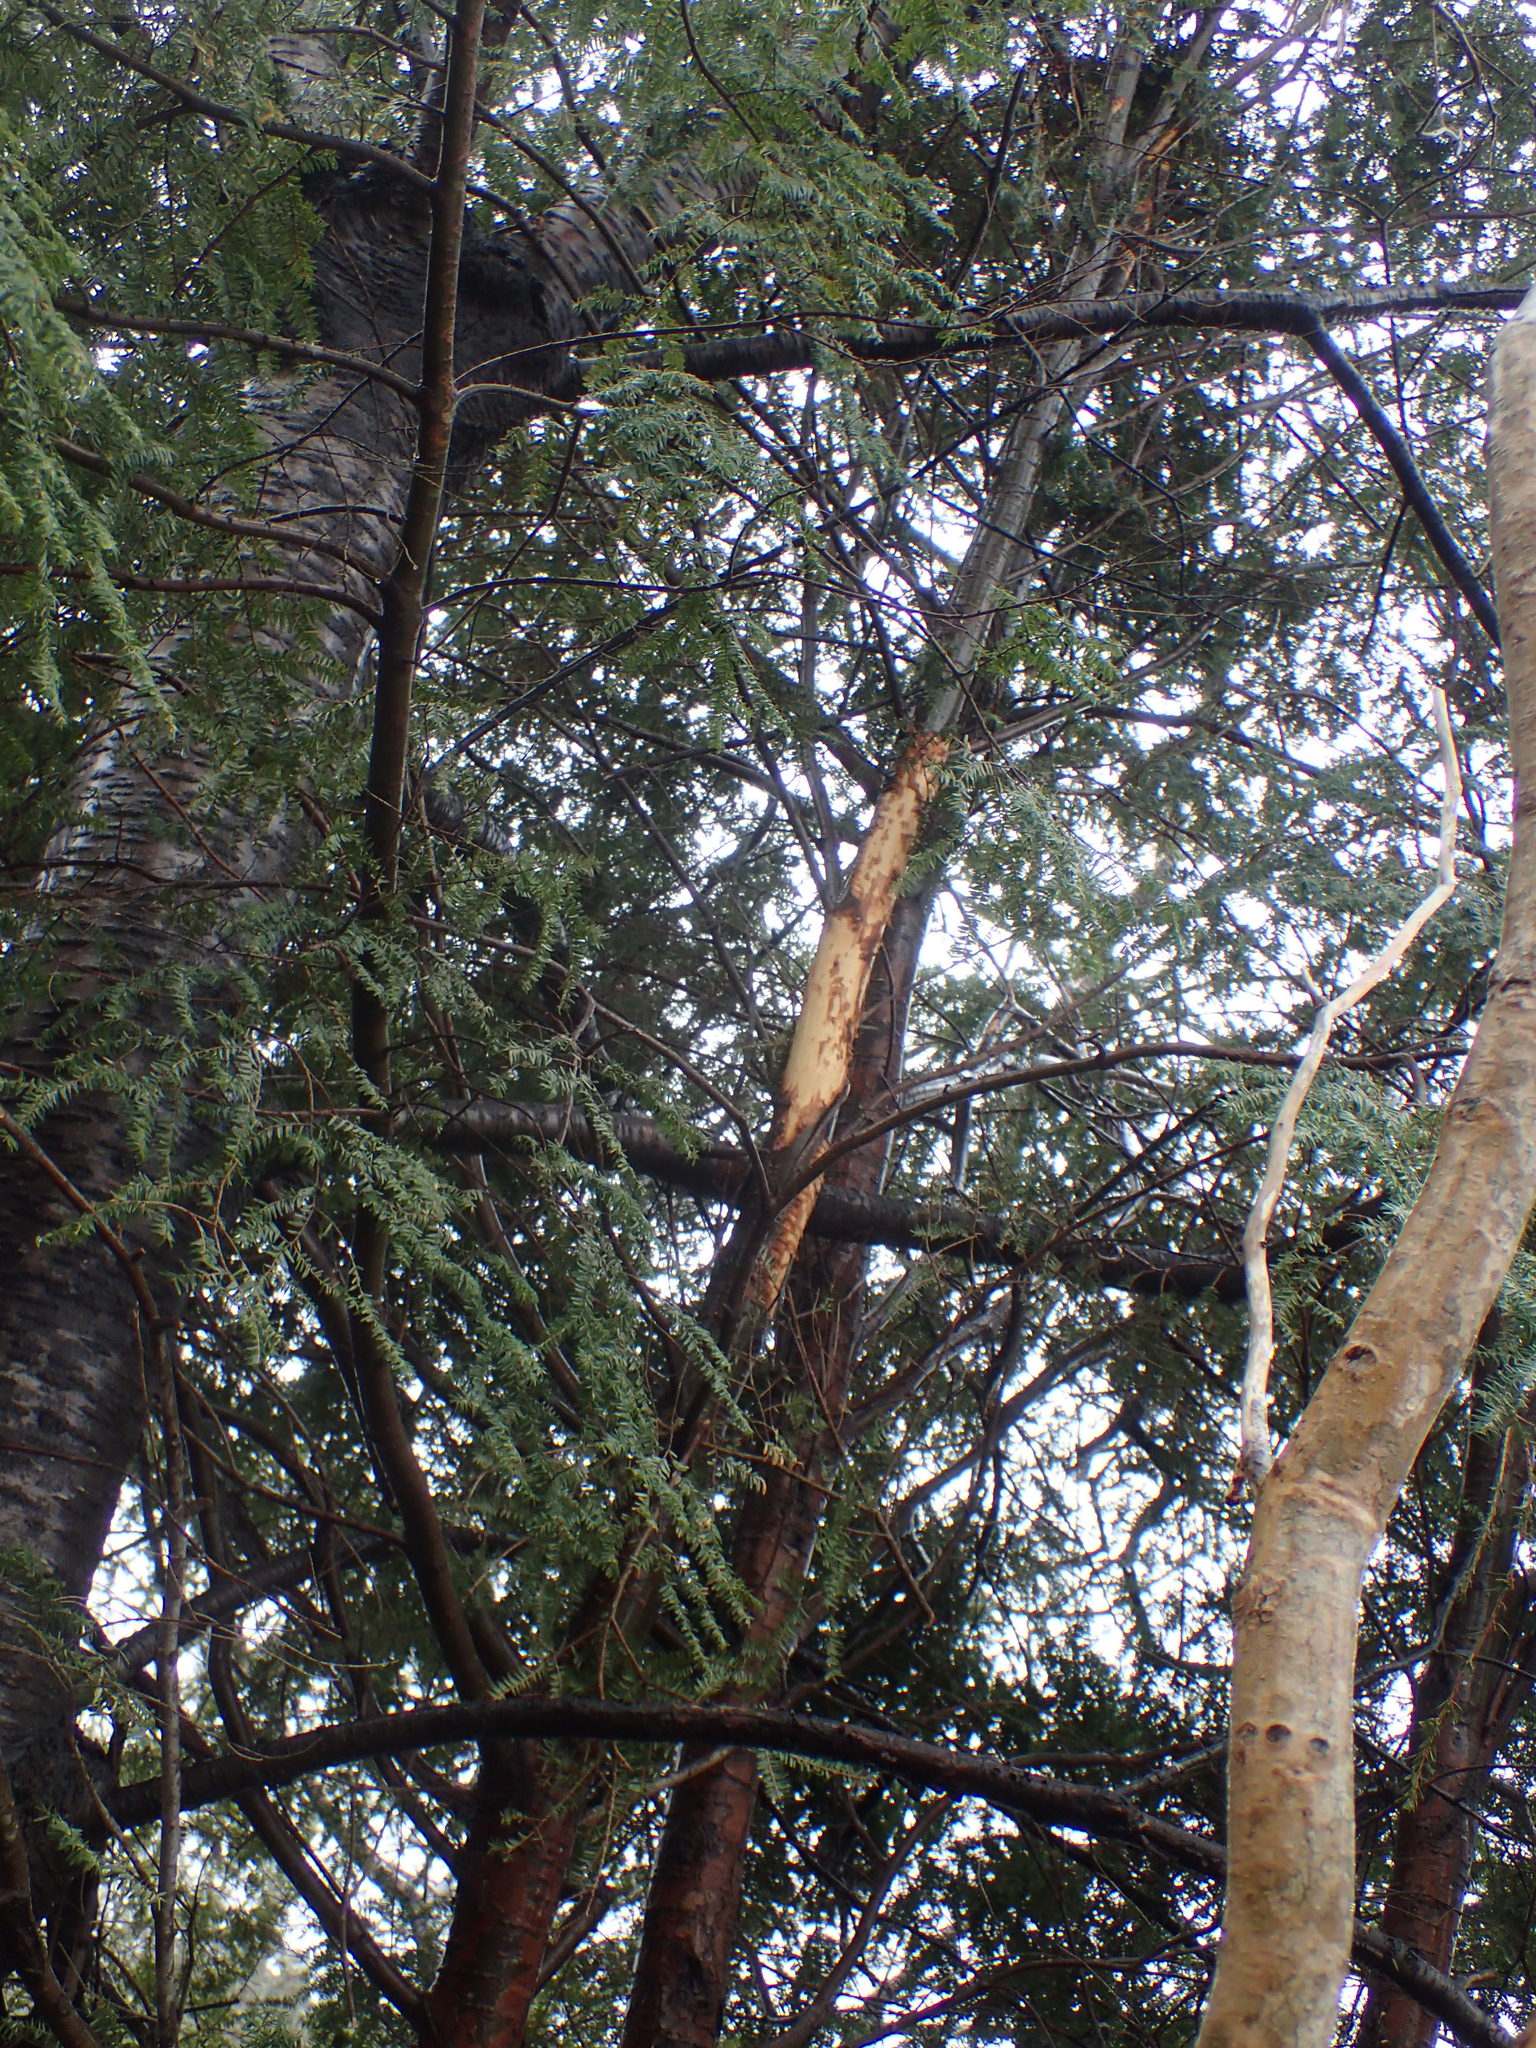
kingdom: Animalia
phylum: Chordata
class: Mammalia
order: Rodentia
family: Erethizontidae
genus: Erethizon
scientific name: Erethizon dorsatus
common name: North american porcupine
